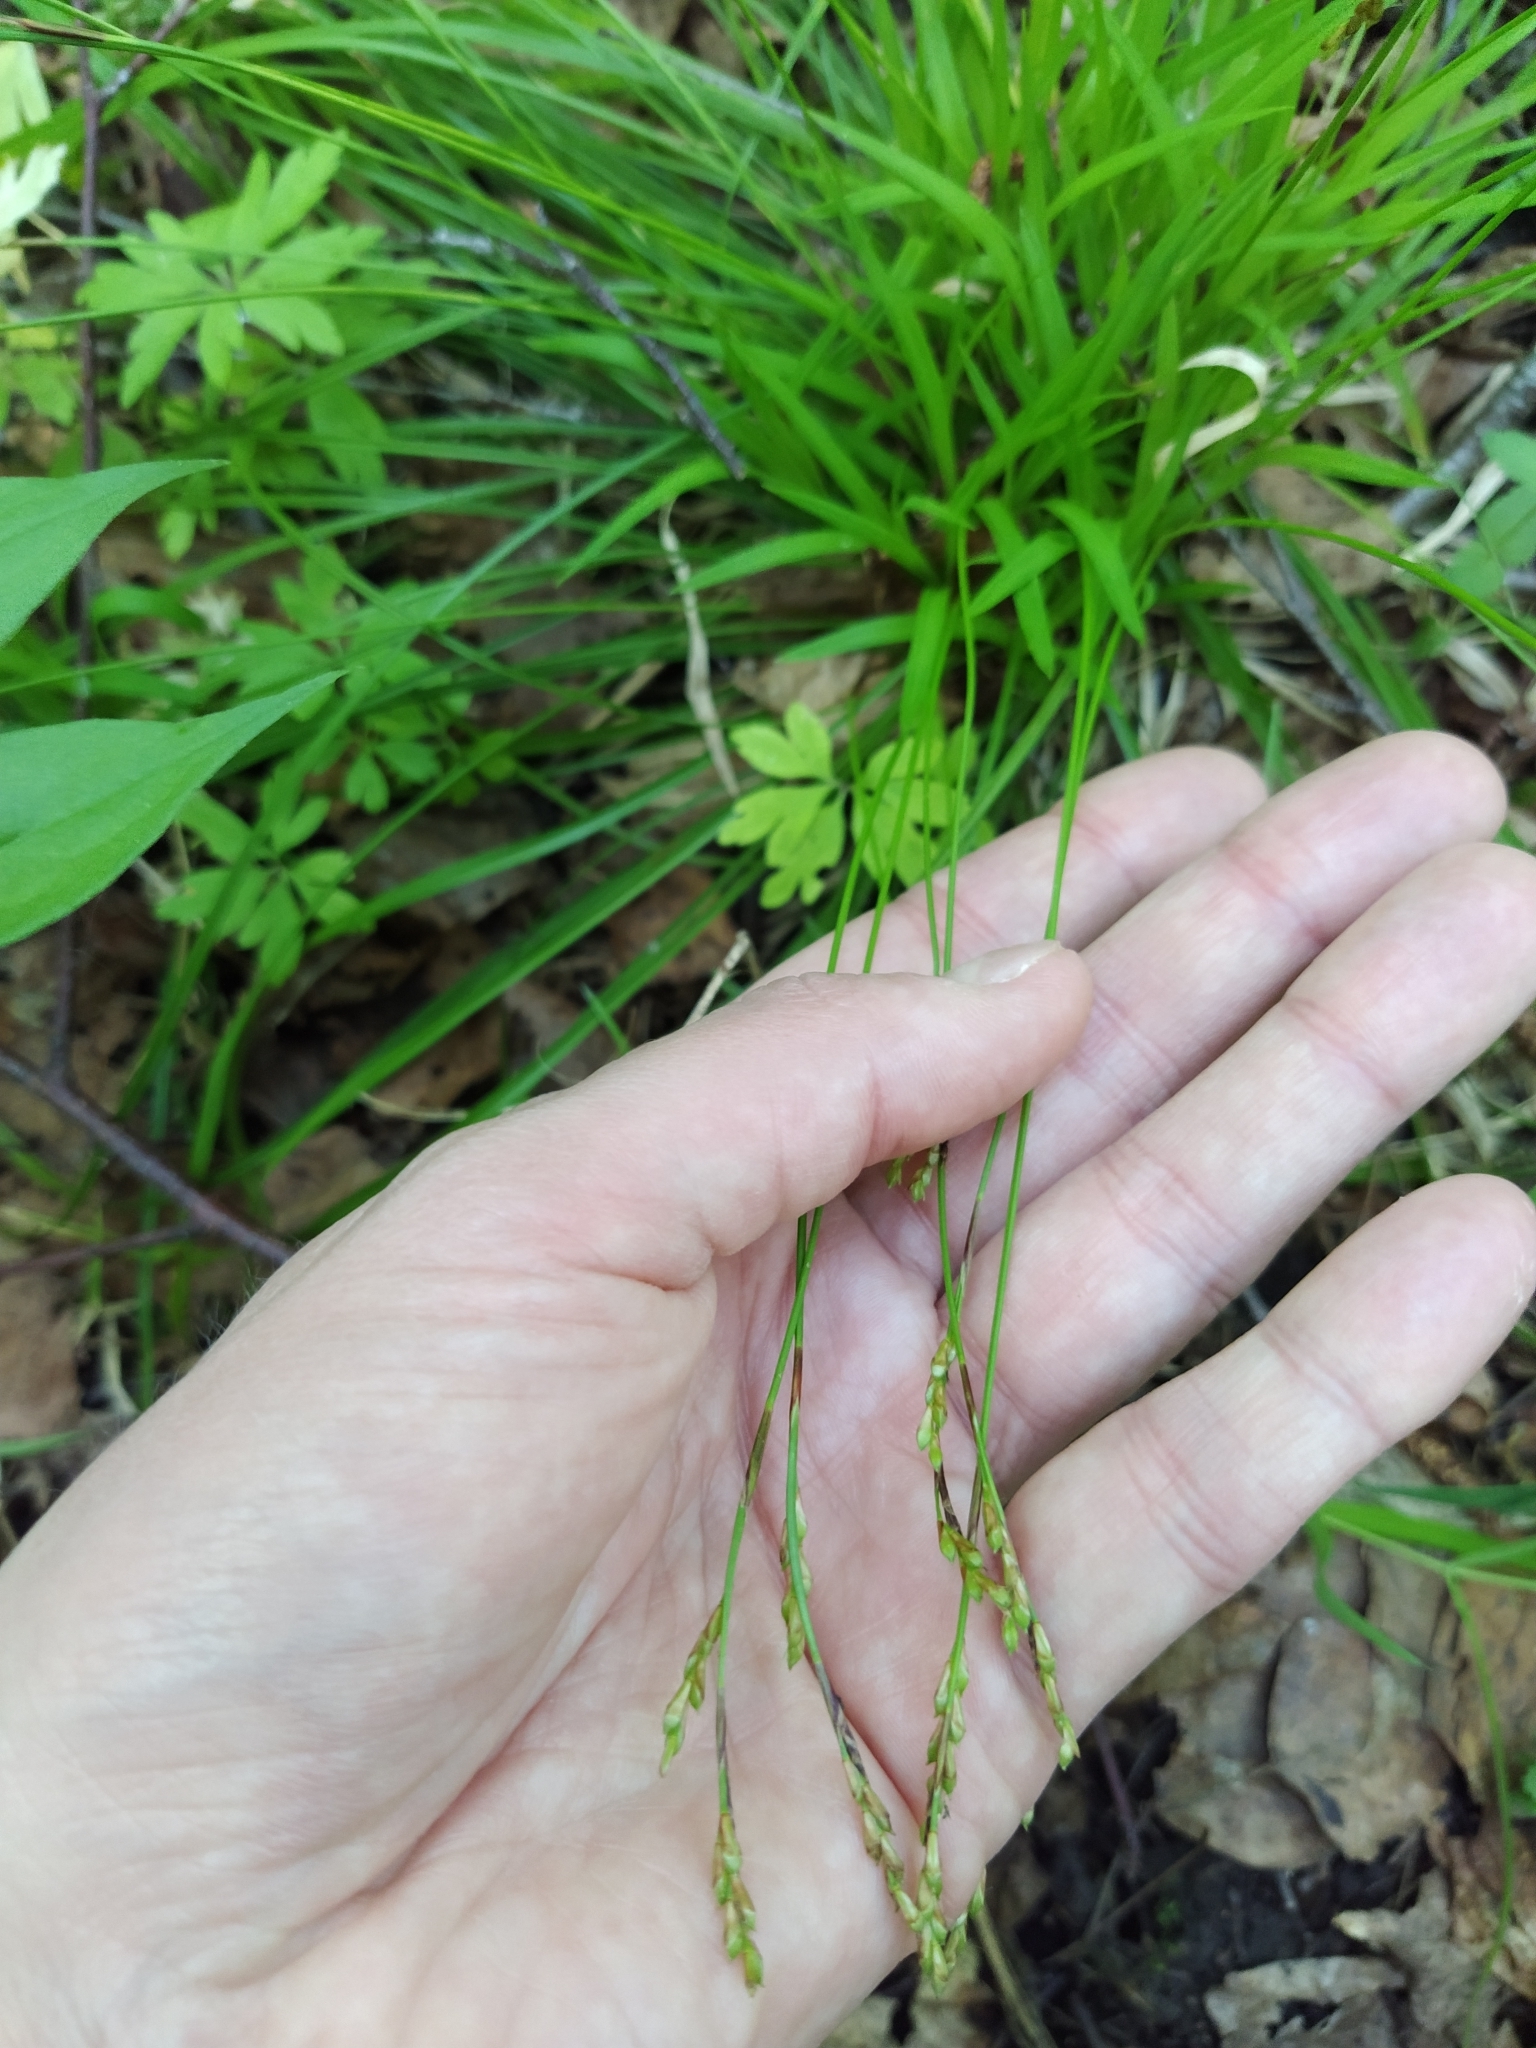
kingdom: Plantae
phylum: Tracheophyta
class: Liliopsida
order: Poales
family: Cyperaceae
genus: Carex
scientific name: Carex digitata
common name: Fingered sedge
